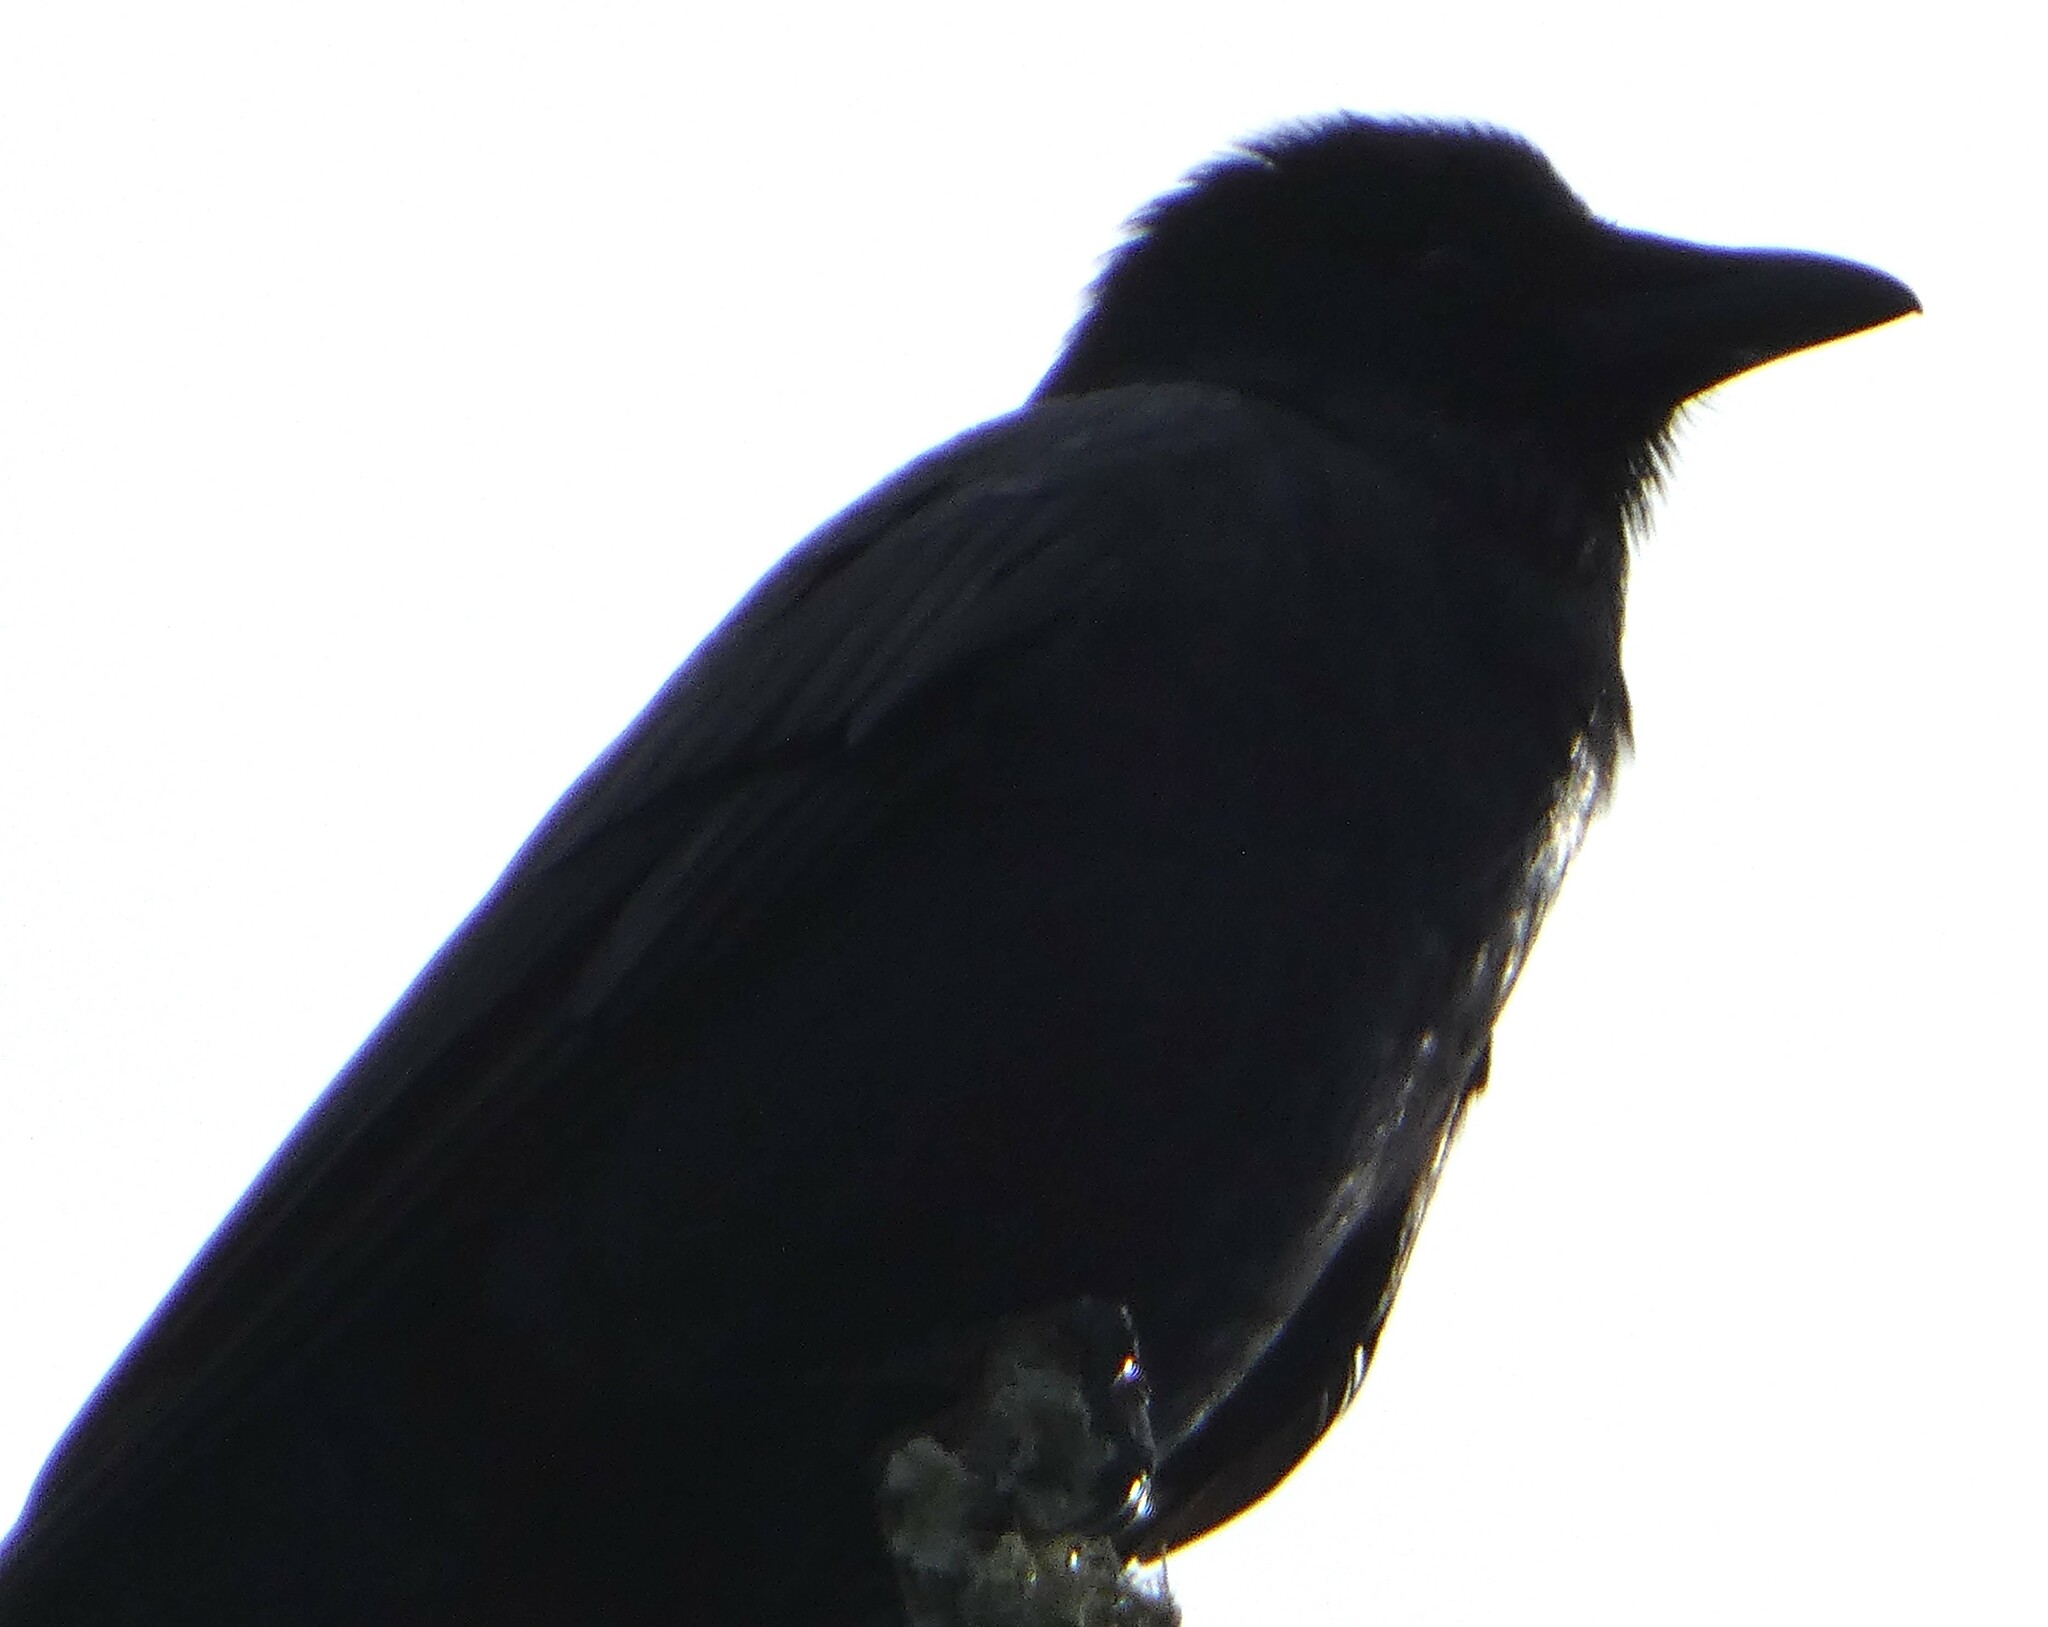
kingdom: Animalia
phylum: Chordata
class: Aves
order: Passeriformes
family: Corvidae
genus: Corvus
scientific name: Corvus ossifragus
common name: Fish crow
